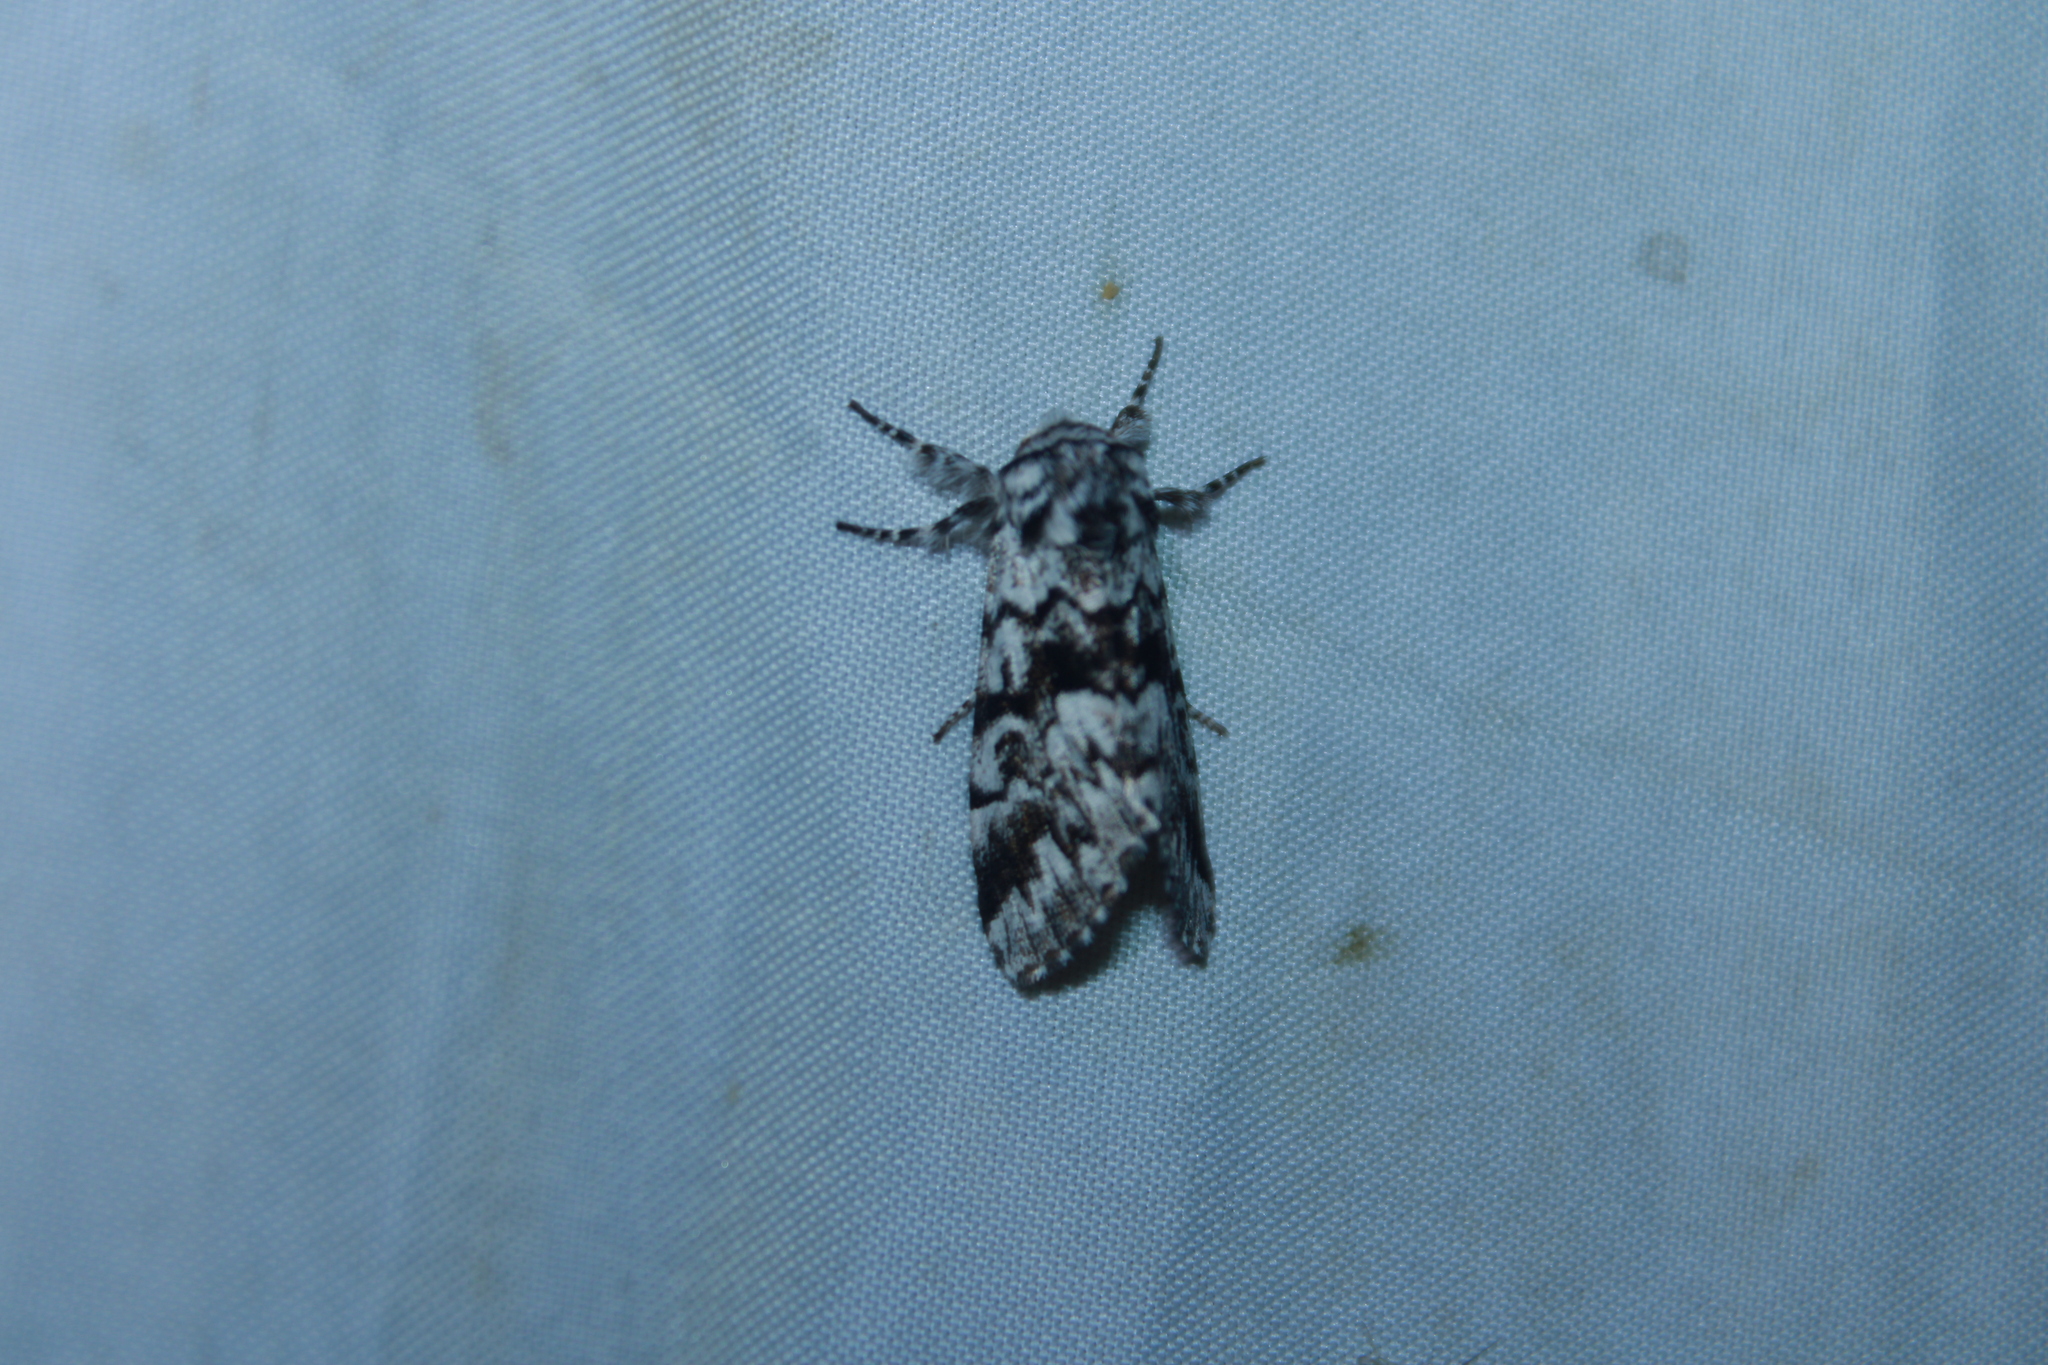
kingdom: Animalia
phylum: Arthropoda
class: Insecta
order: Lepidoptera
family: Noctuidae
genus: Panthea
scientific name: Panthea acronyctoides
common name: Black zigzag moth
